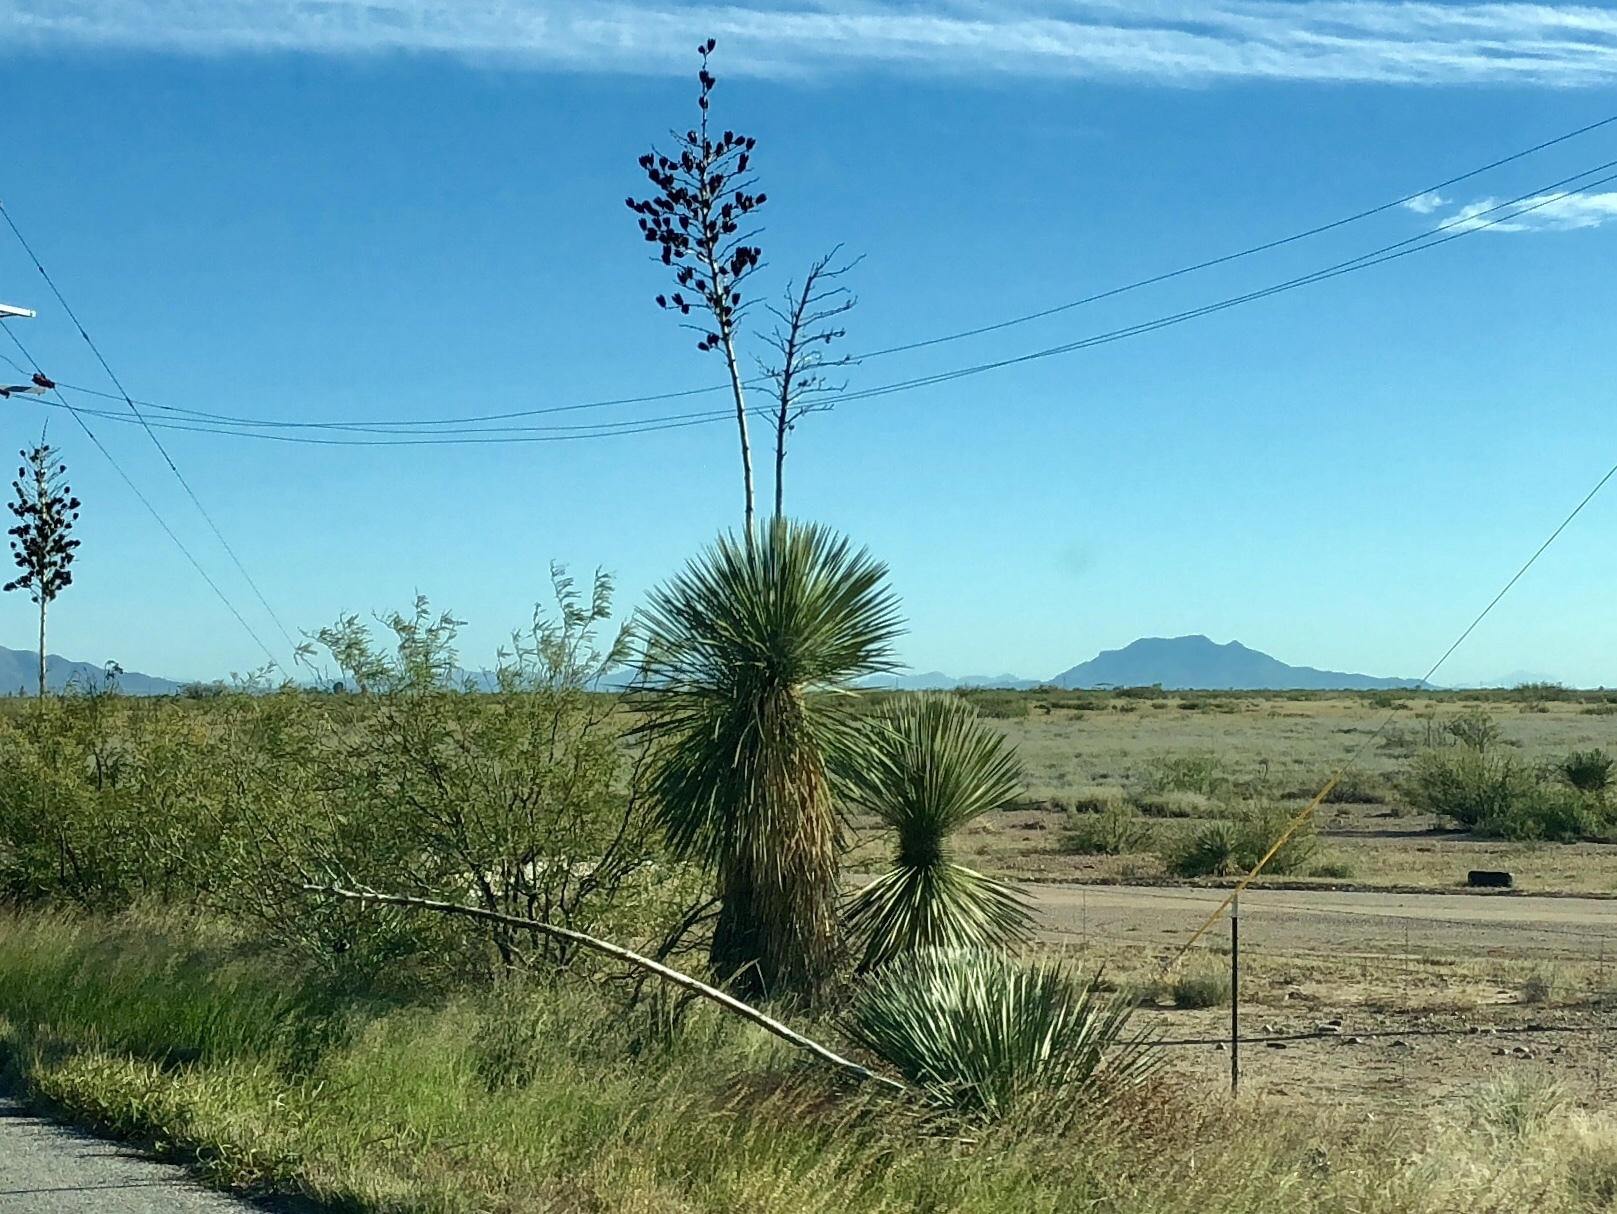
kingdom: Plantae
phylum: Tracheophyta
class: Liliopsida
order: Asparagales
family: Asparagaceae
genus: Yucca
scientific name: Yucca elata
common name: Palmella
